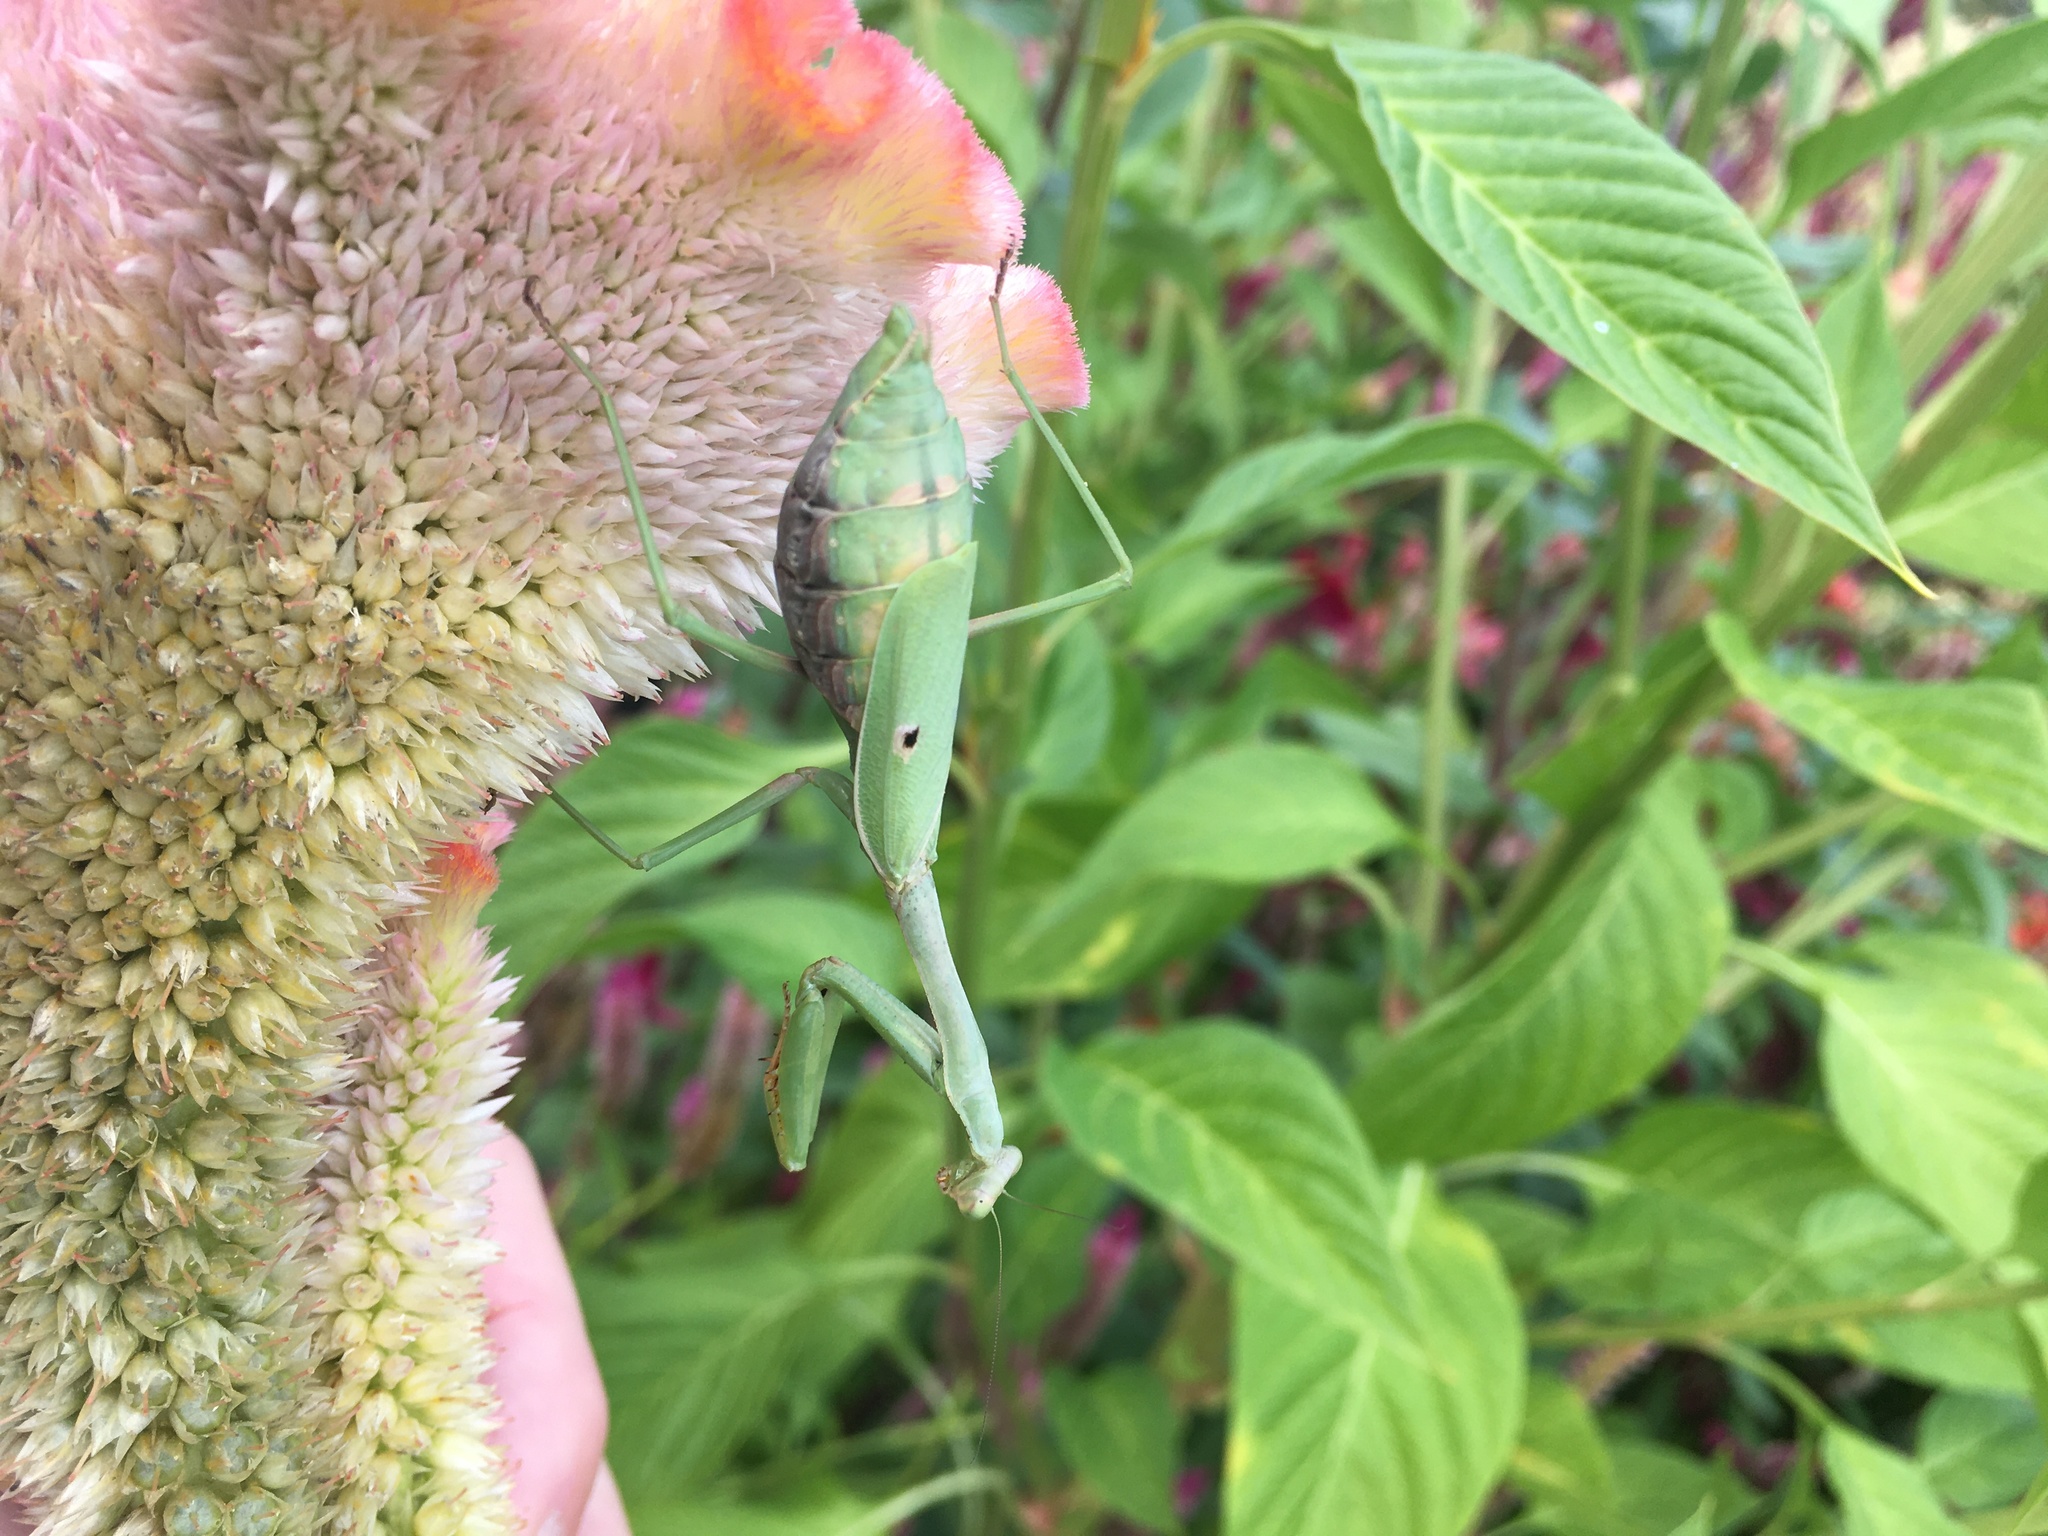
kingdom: Animalia
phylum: Arthropoda
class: Insecta
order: Mantodea
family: Mantidae
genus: Stagmomantis
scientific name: Stagmomantis carolina
